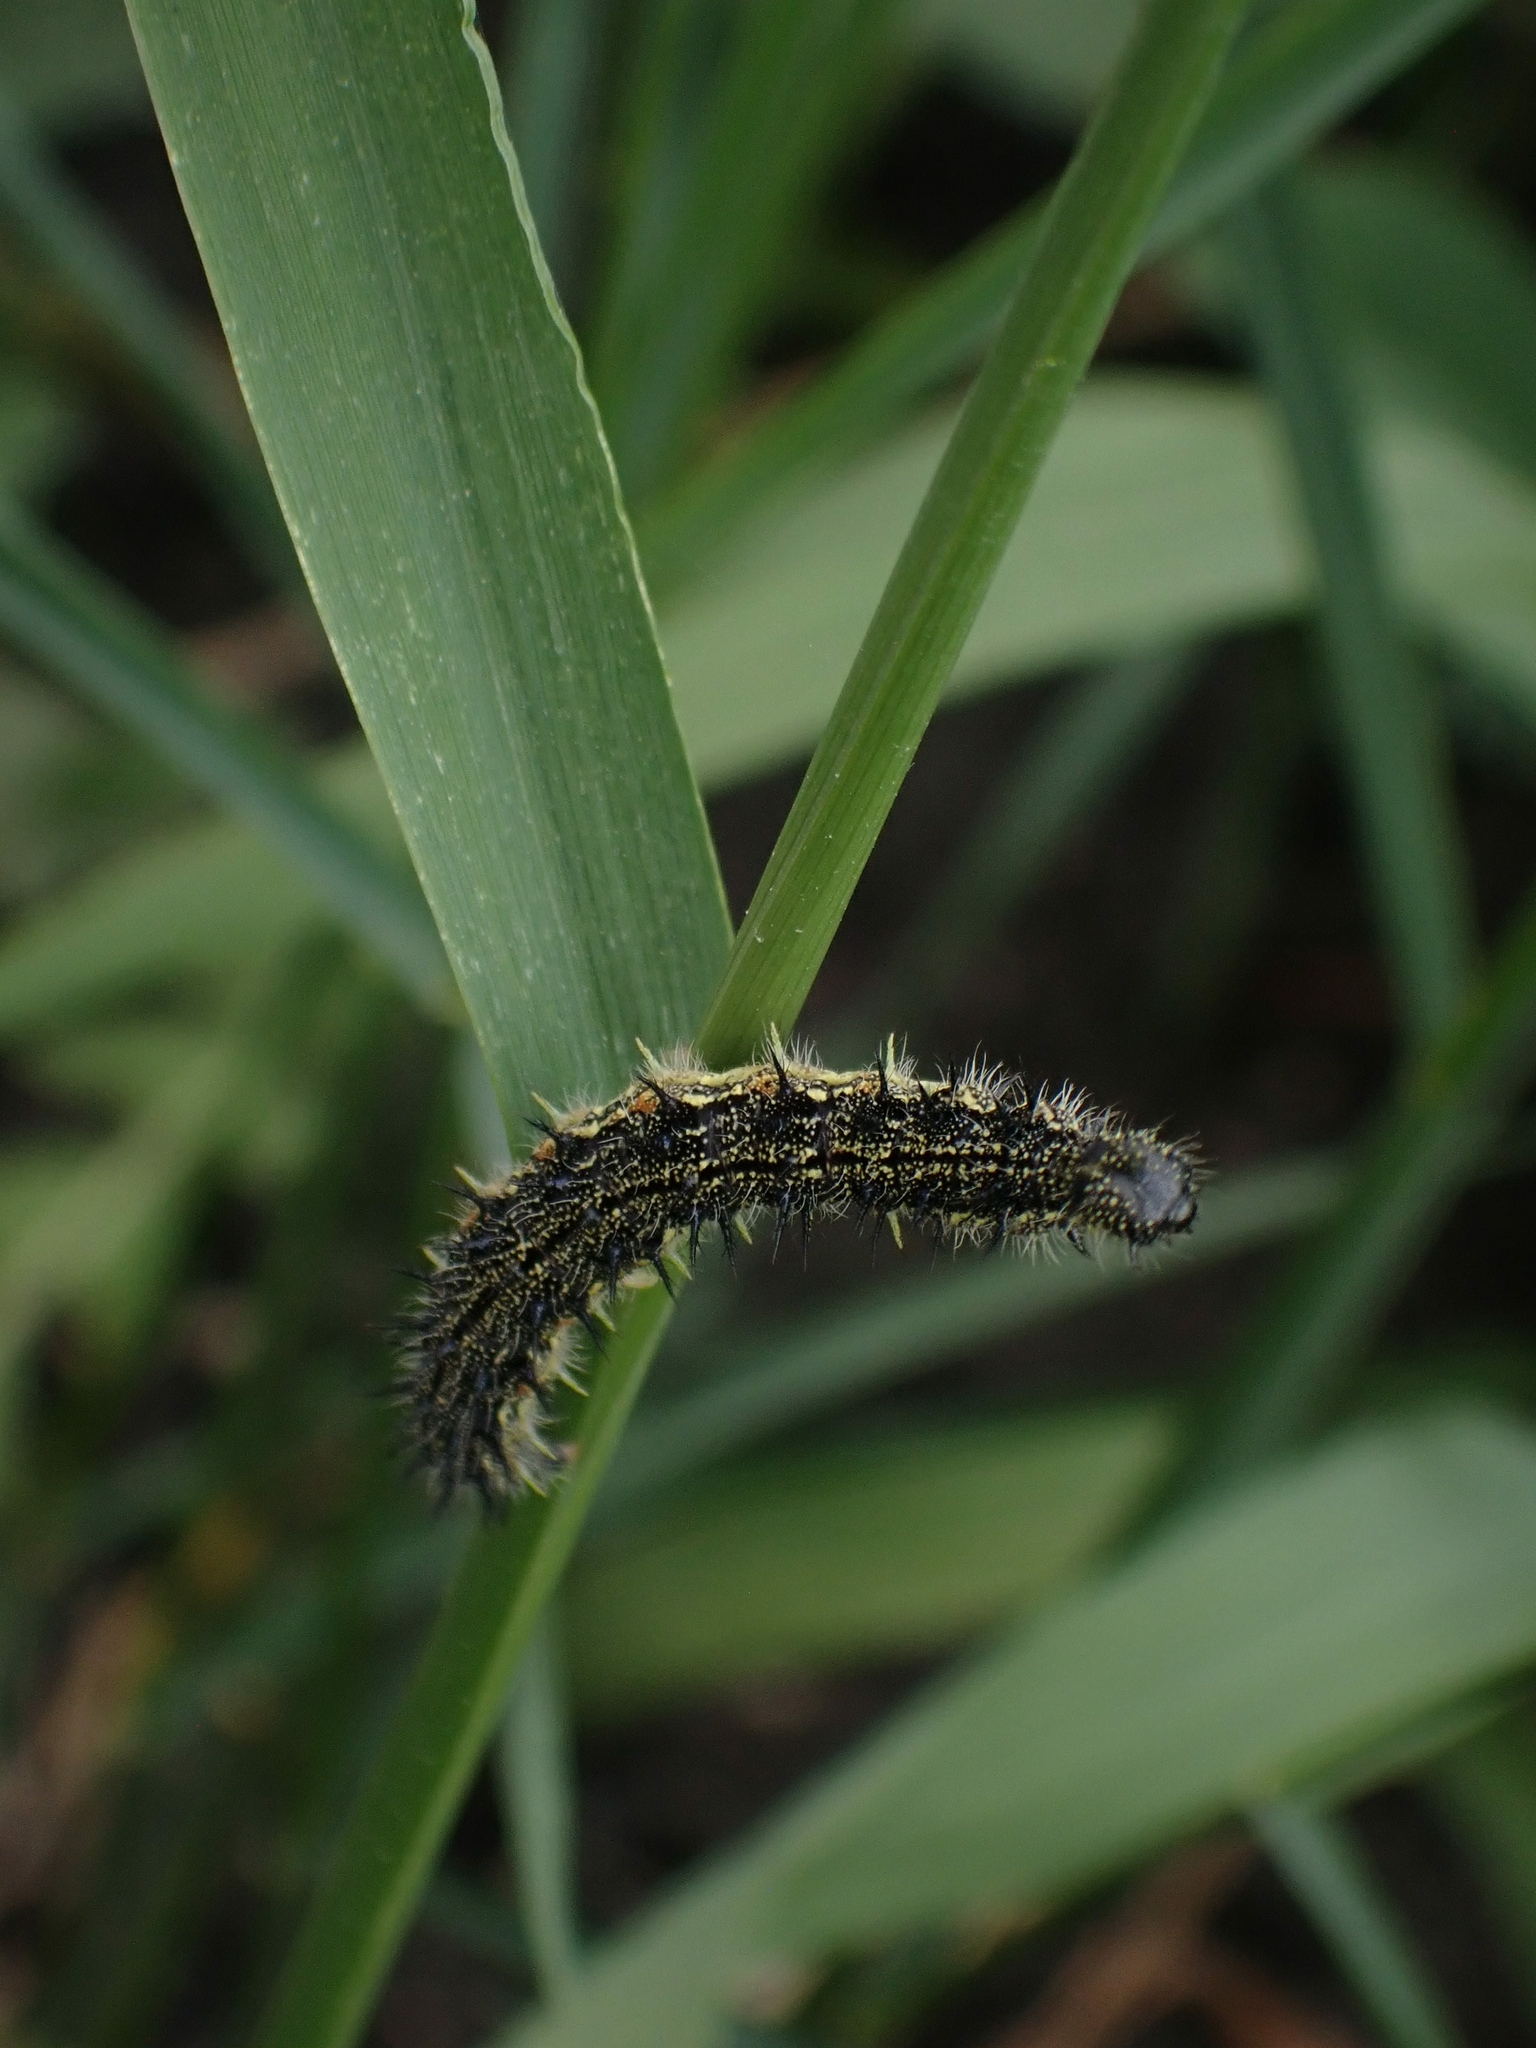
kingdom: Animalia
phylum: Arthropoda
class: Insecta
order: Lepidoptera
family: Nymphalidae
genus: Aglais
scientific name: Aglais milberti
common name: Milbert's tortoiseshell
